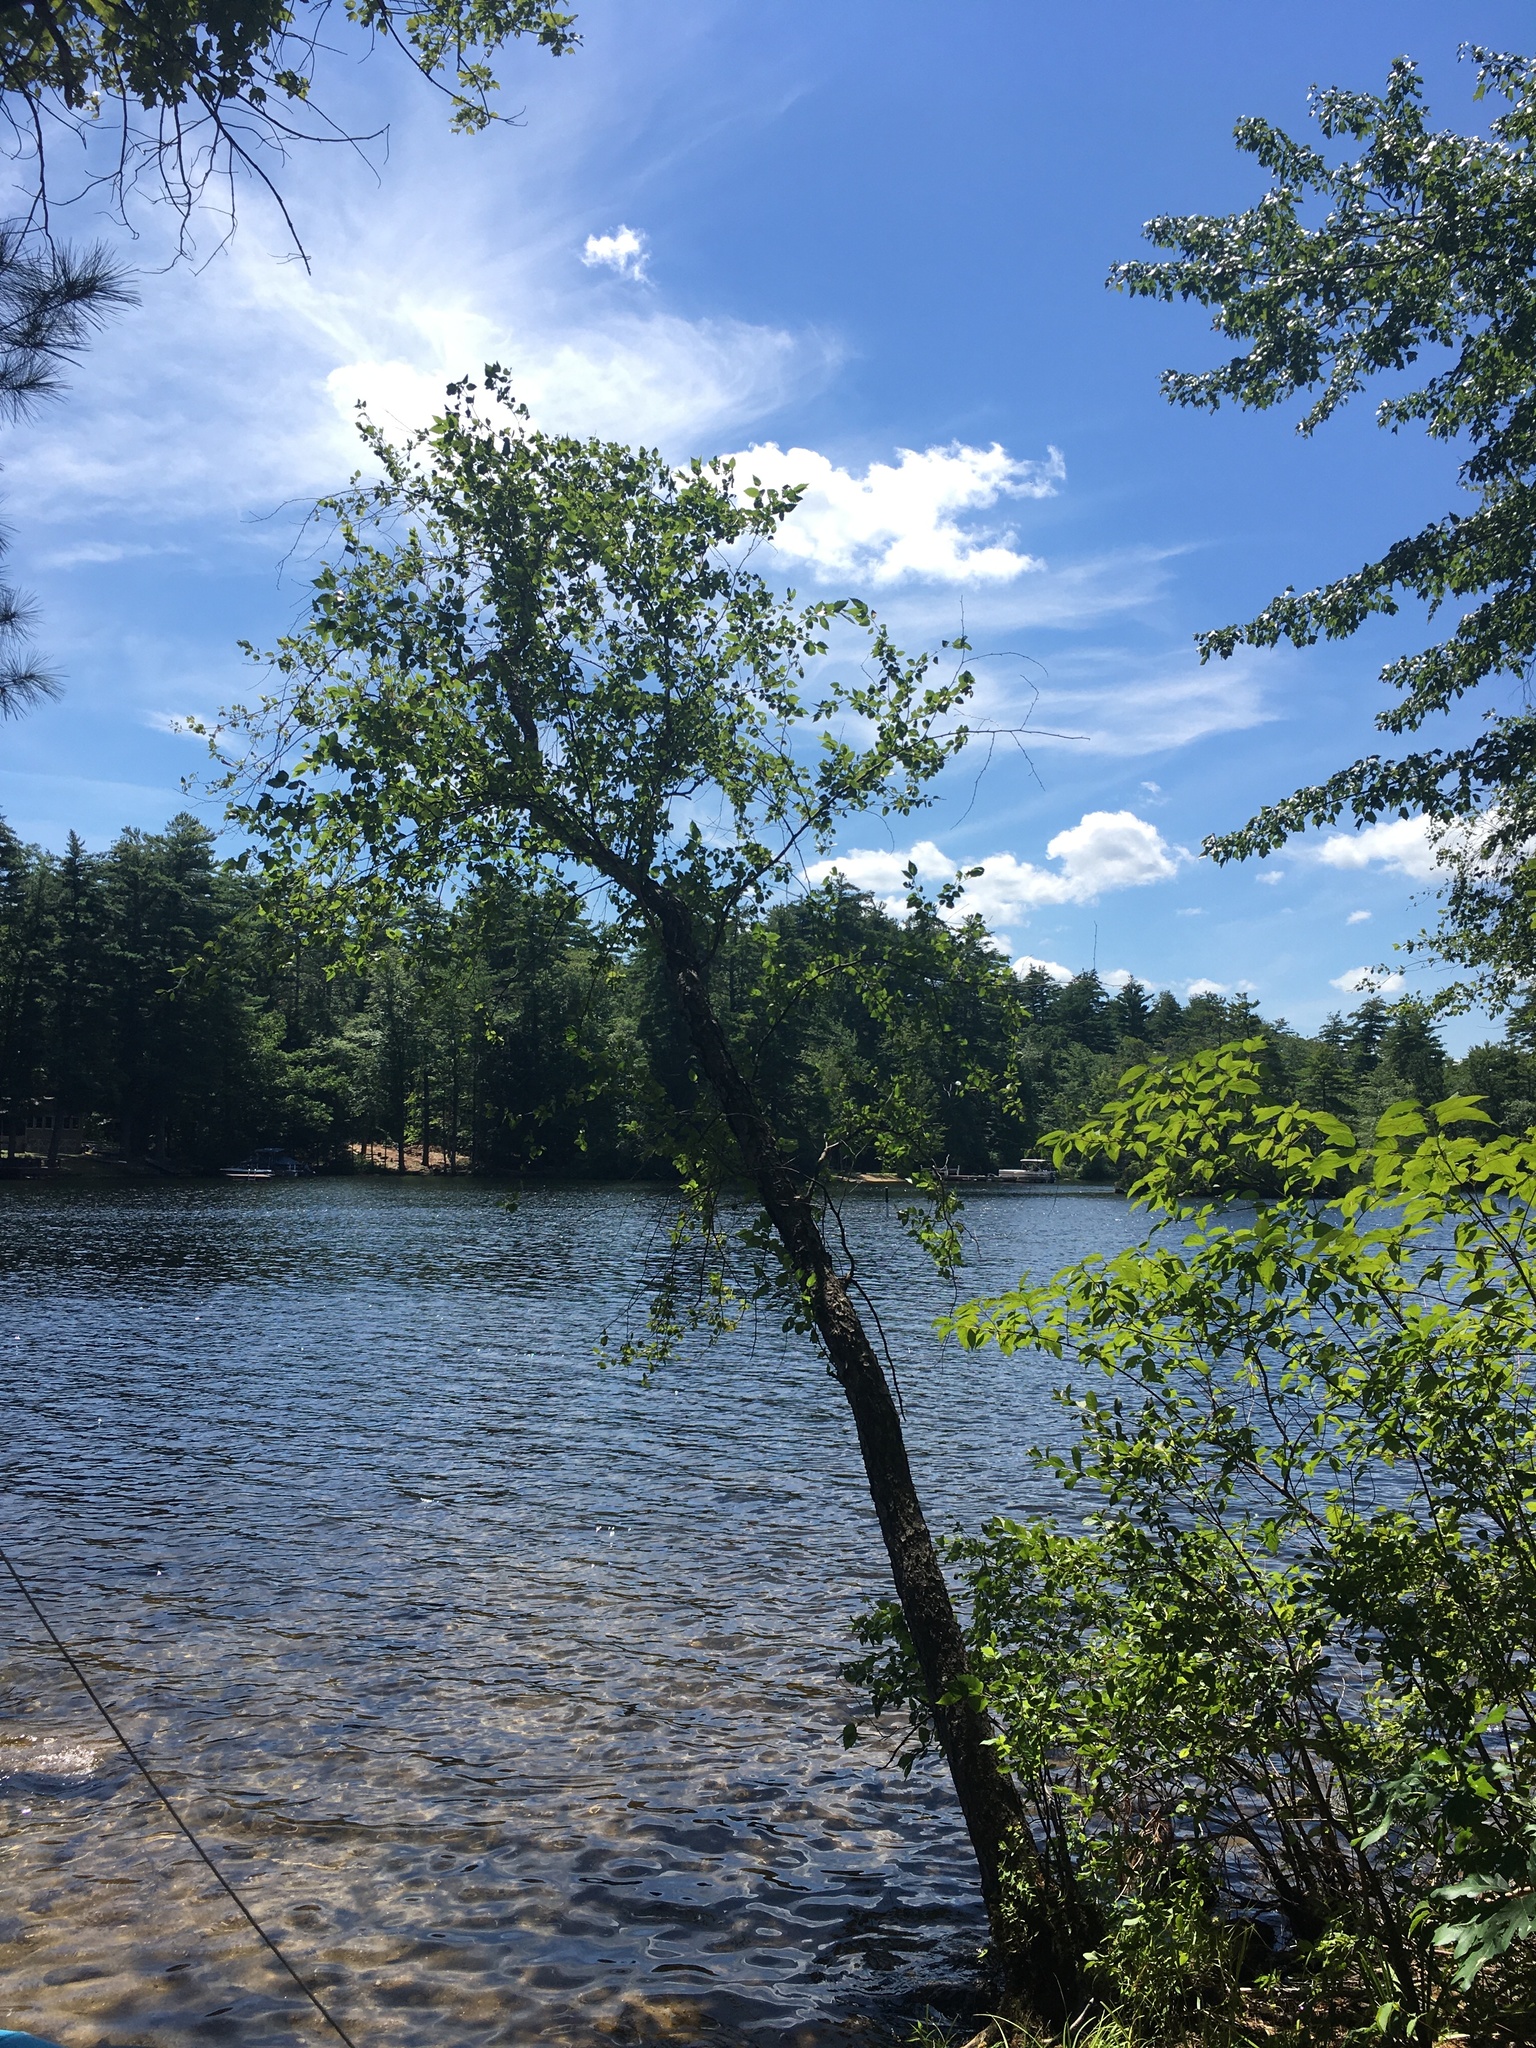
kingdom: Plantae
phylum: Tracheophyta
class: Magnoliopsida
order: Fagales
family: Betulaceae
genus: Betula
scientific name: Betula nigra
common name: Black birch
